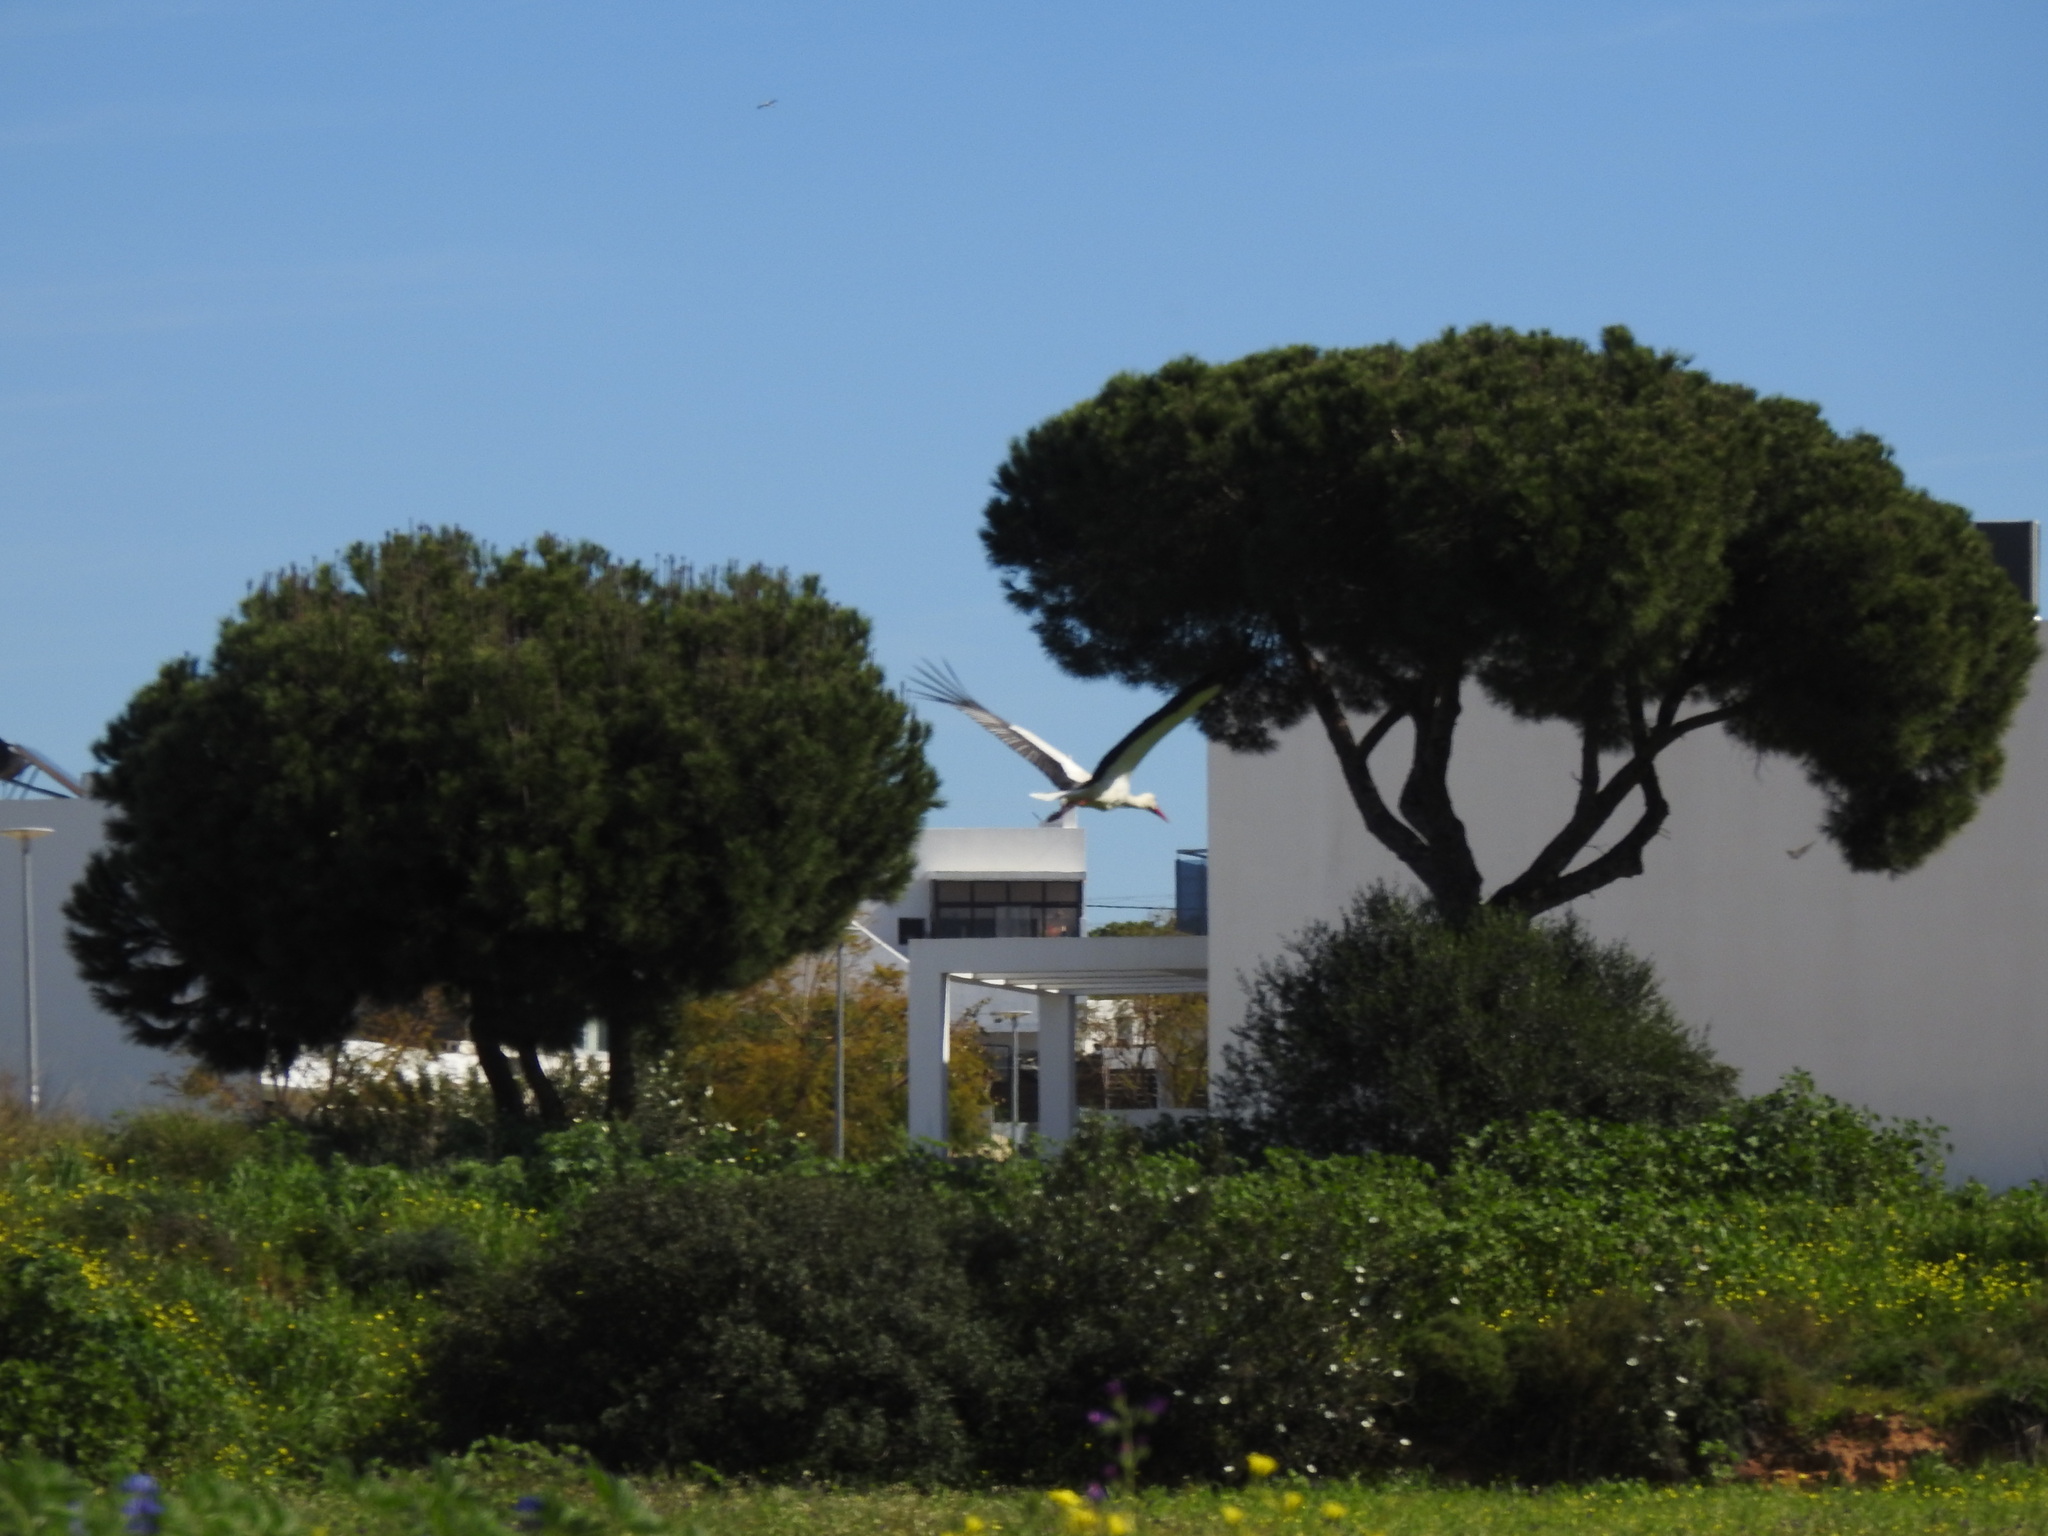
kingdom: Animalia
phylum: Chordata
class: Aves
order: Ciconiiformes
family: Ciconiidae
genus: Ciconia
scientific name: Ciconia ciconia
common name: White stork
